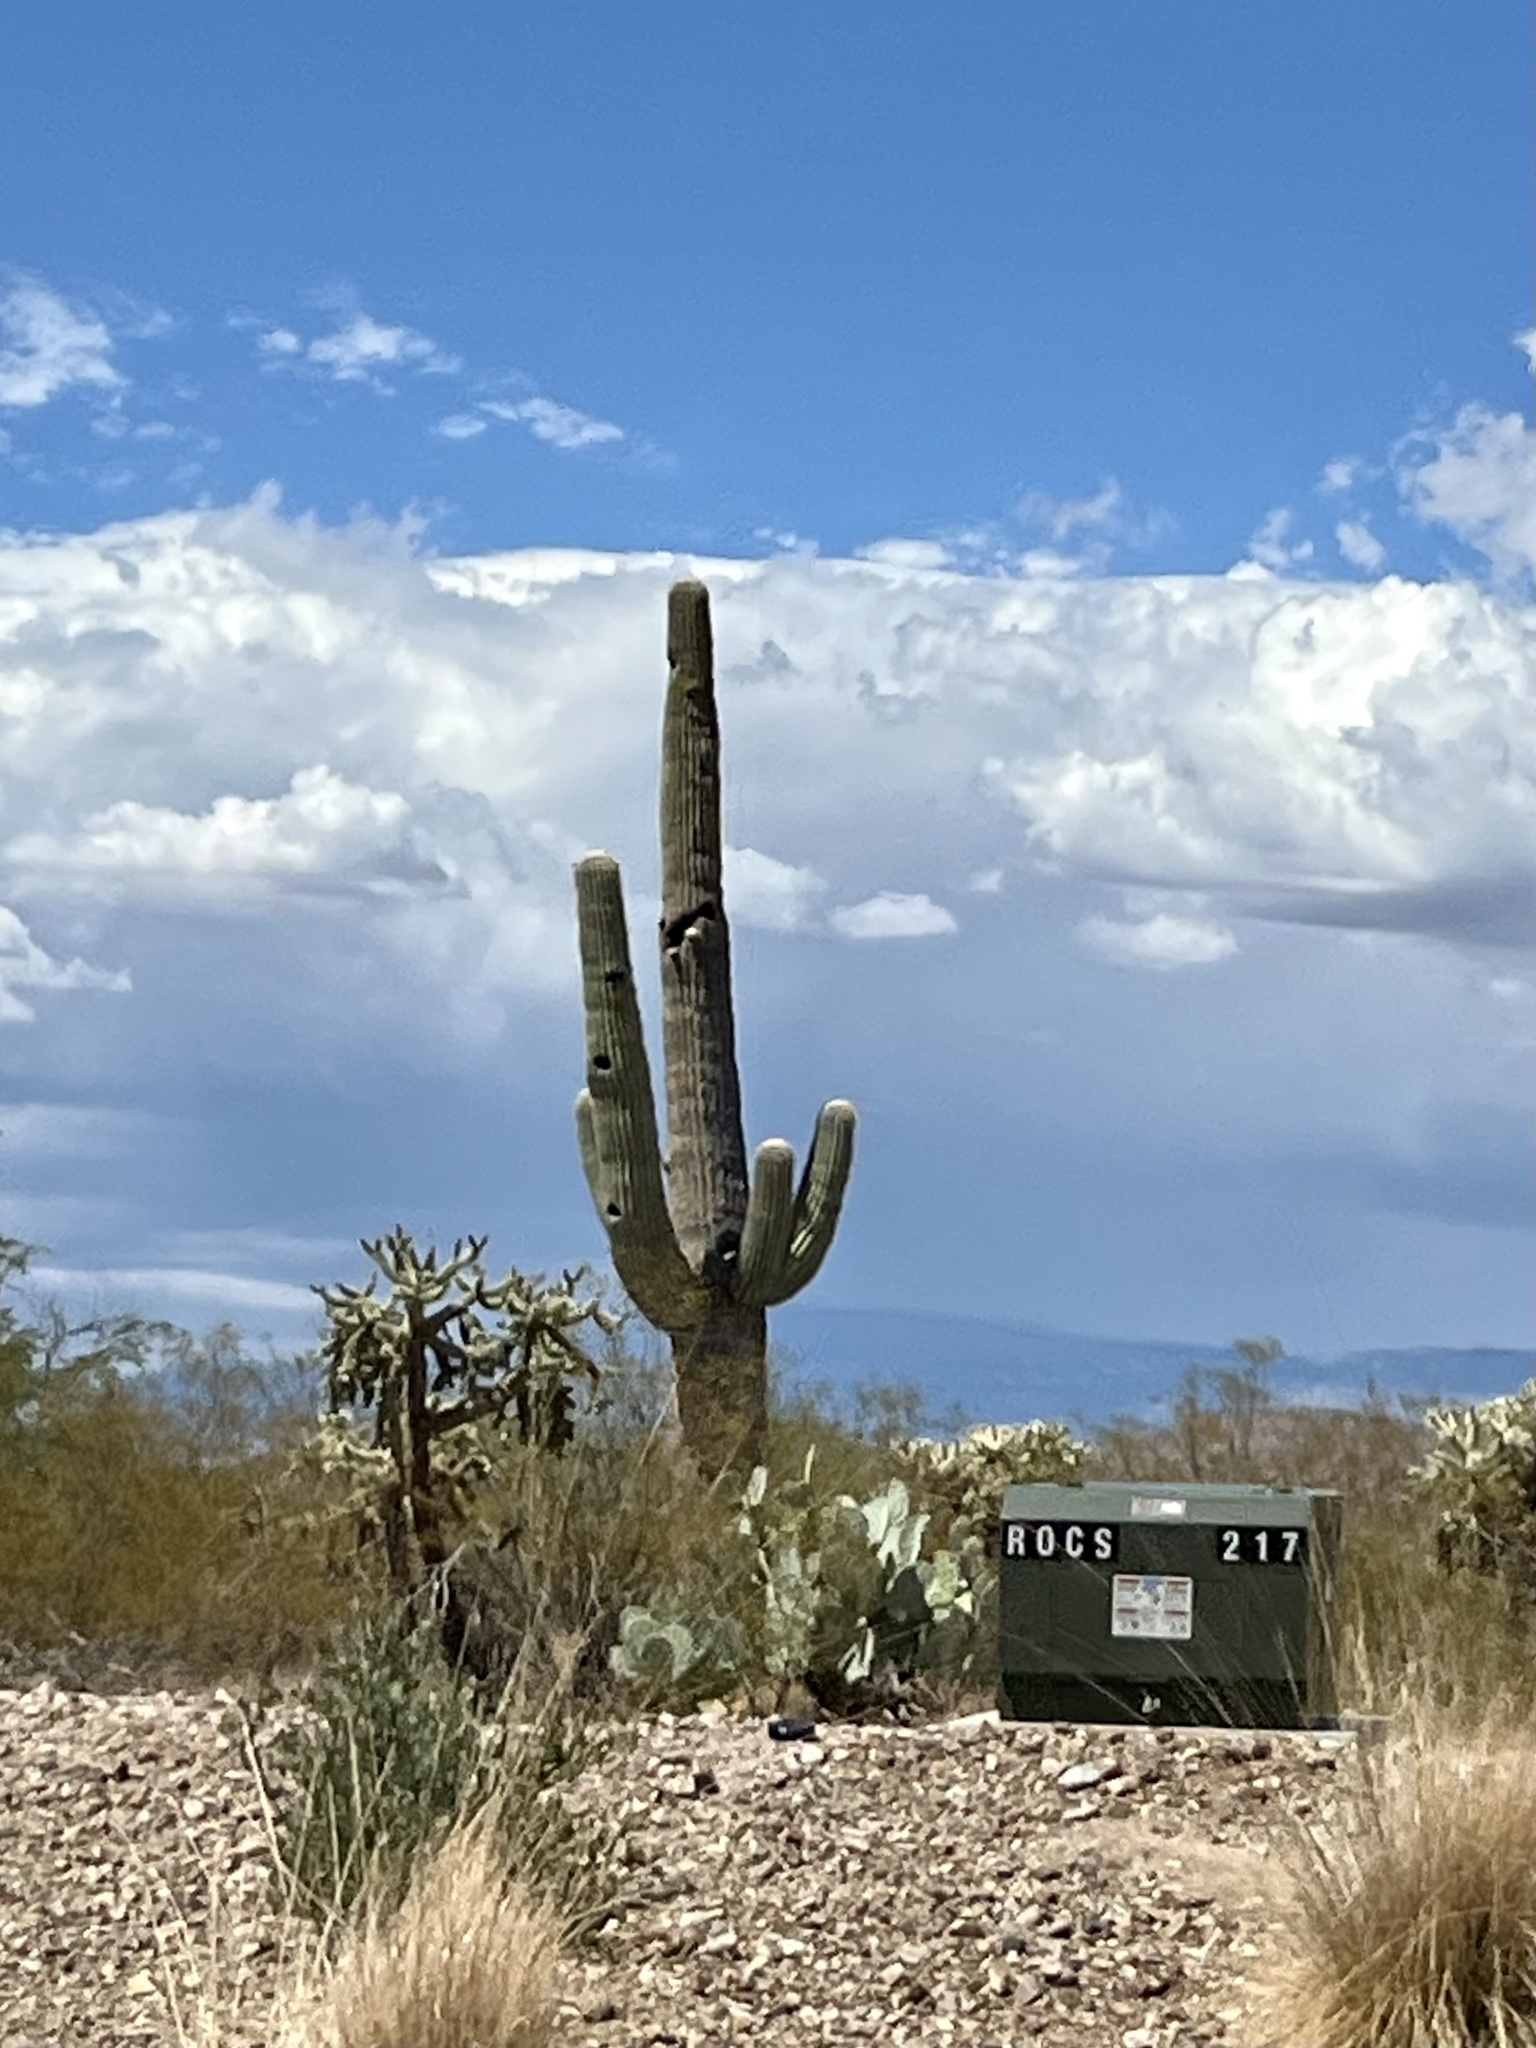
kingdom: Plantae
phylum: Tracheophyta
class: Magnoliopsida
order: Caryophyllales
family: Cactaceae
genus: Carnegiea
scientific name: Carnegiea gigantea
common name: Saguaro
